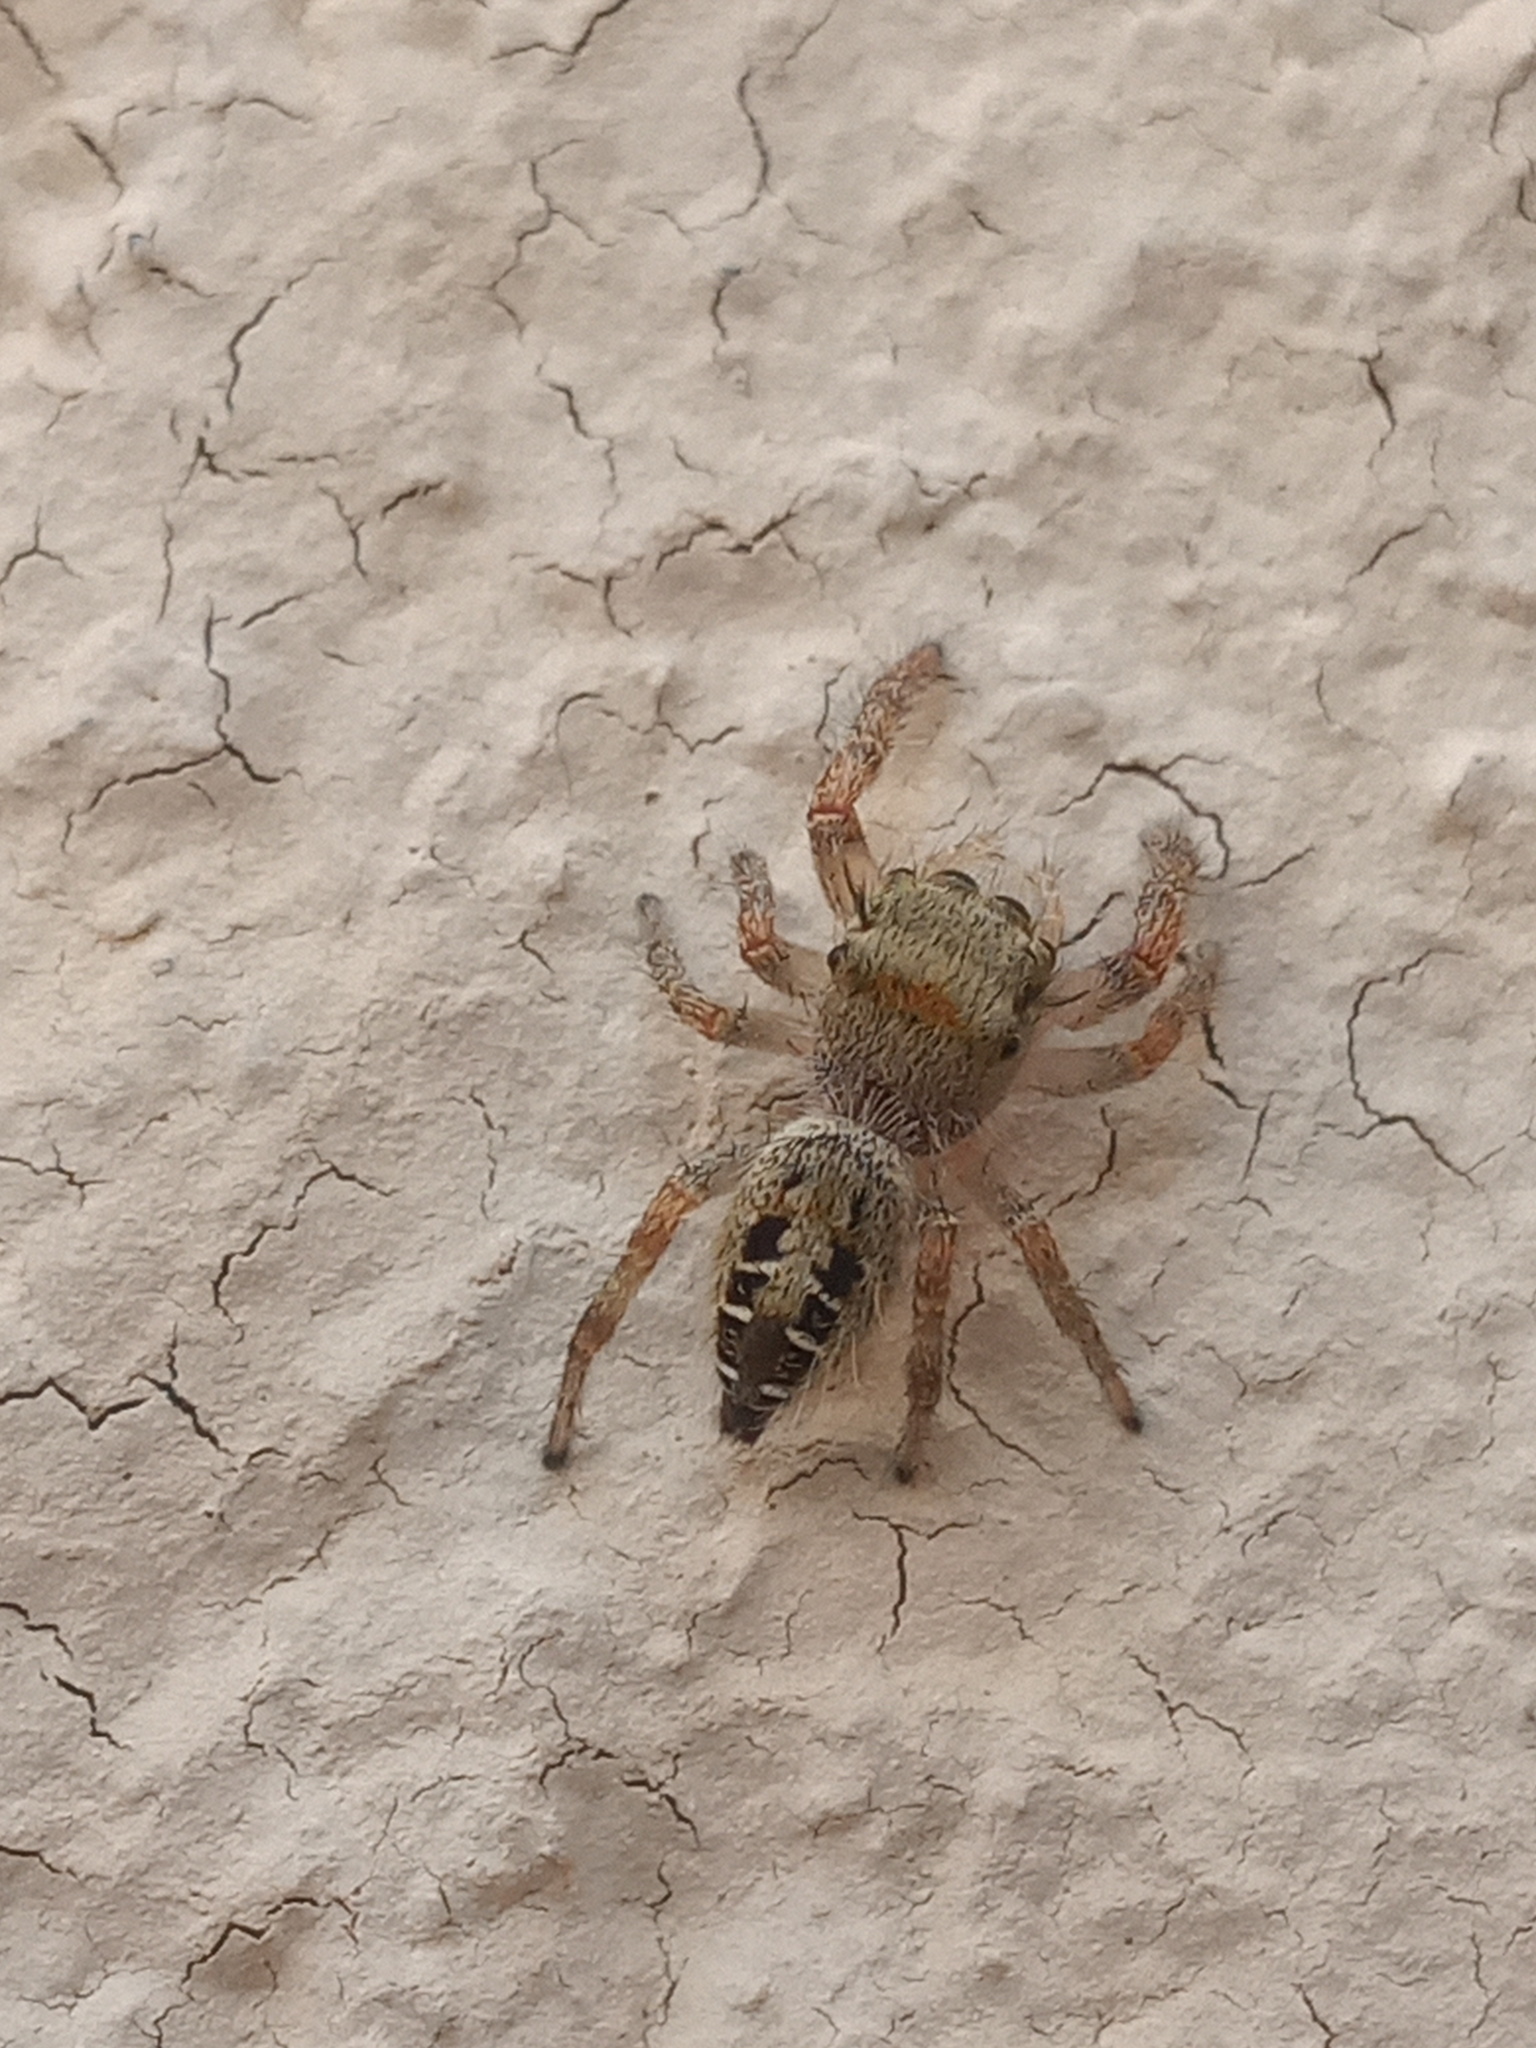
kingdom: Animalia
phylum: Arthropoda
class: Arachnida
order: Araneae
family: Salticidae
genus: Phidippus
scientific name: Phidippus arizonensis
